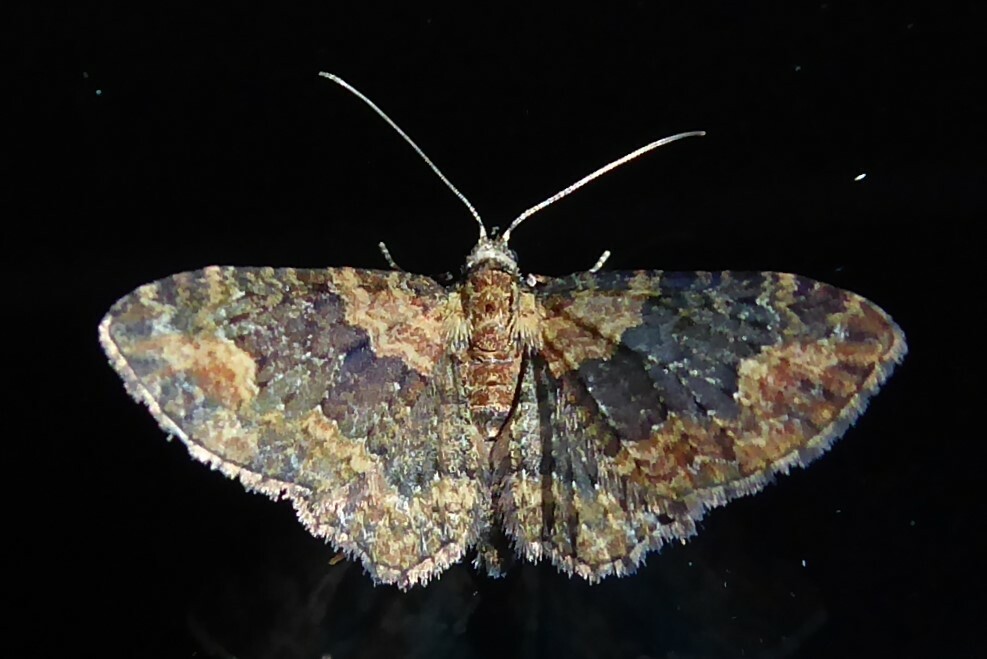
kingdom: Animalia
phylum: Arthropoda
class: Insecta
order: Lepidoptera
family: Geometridae
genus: Pasiphilodes
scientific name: Pasiphilodes testulata
